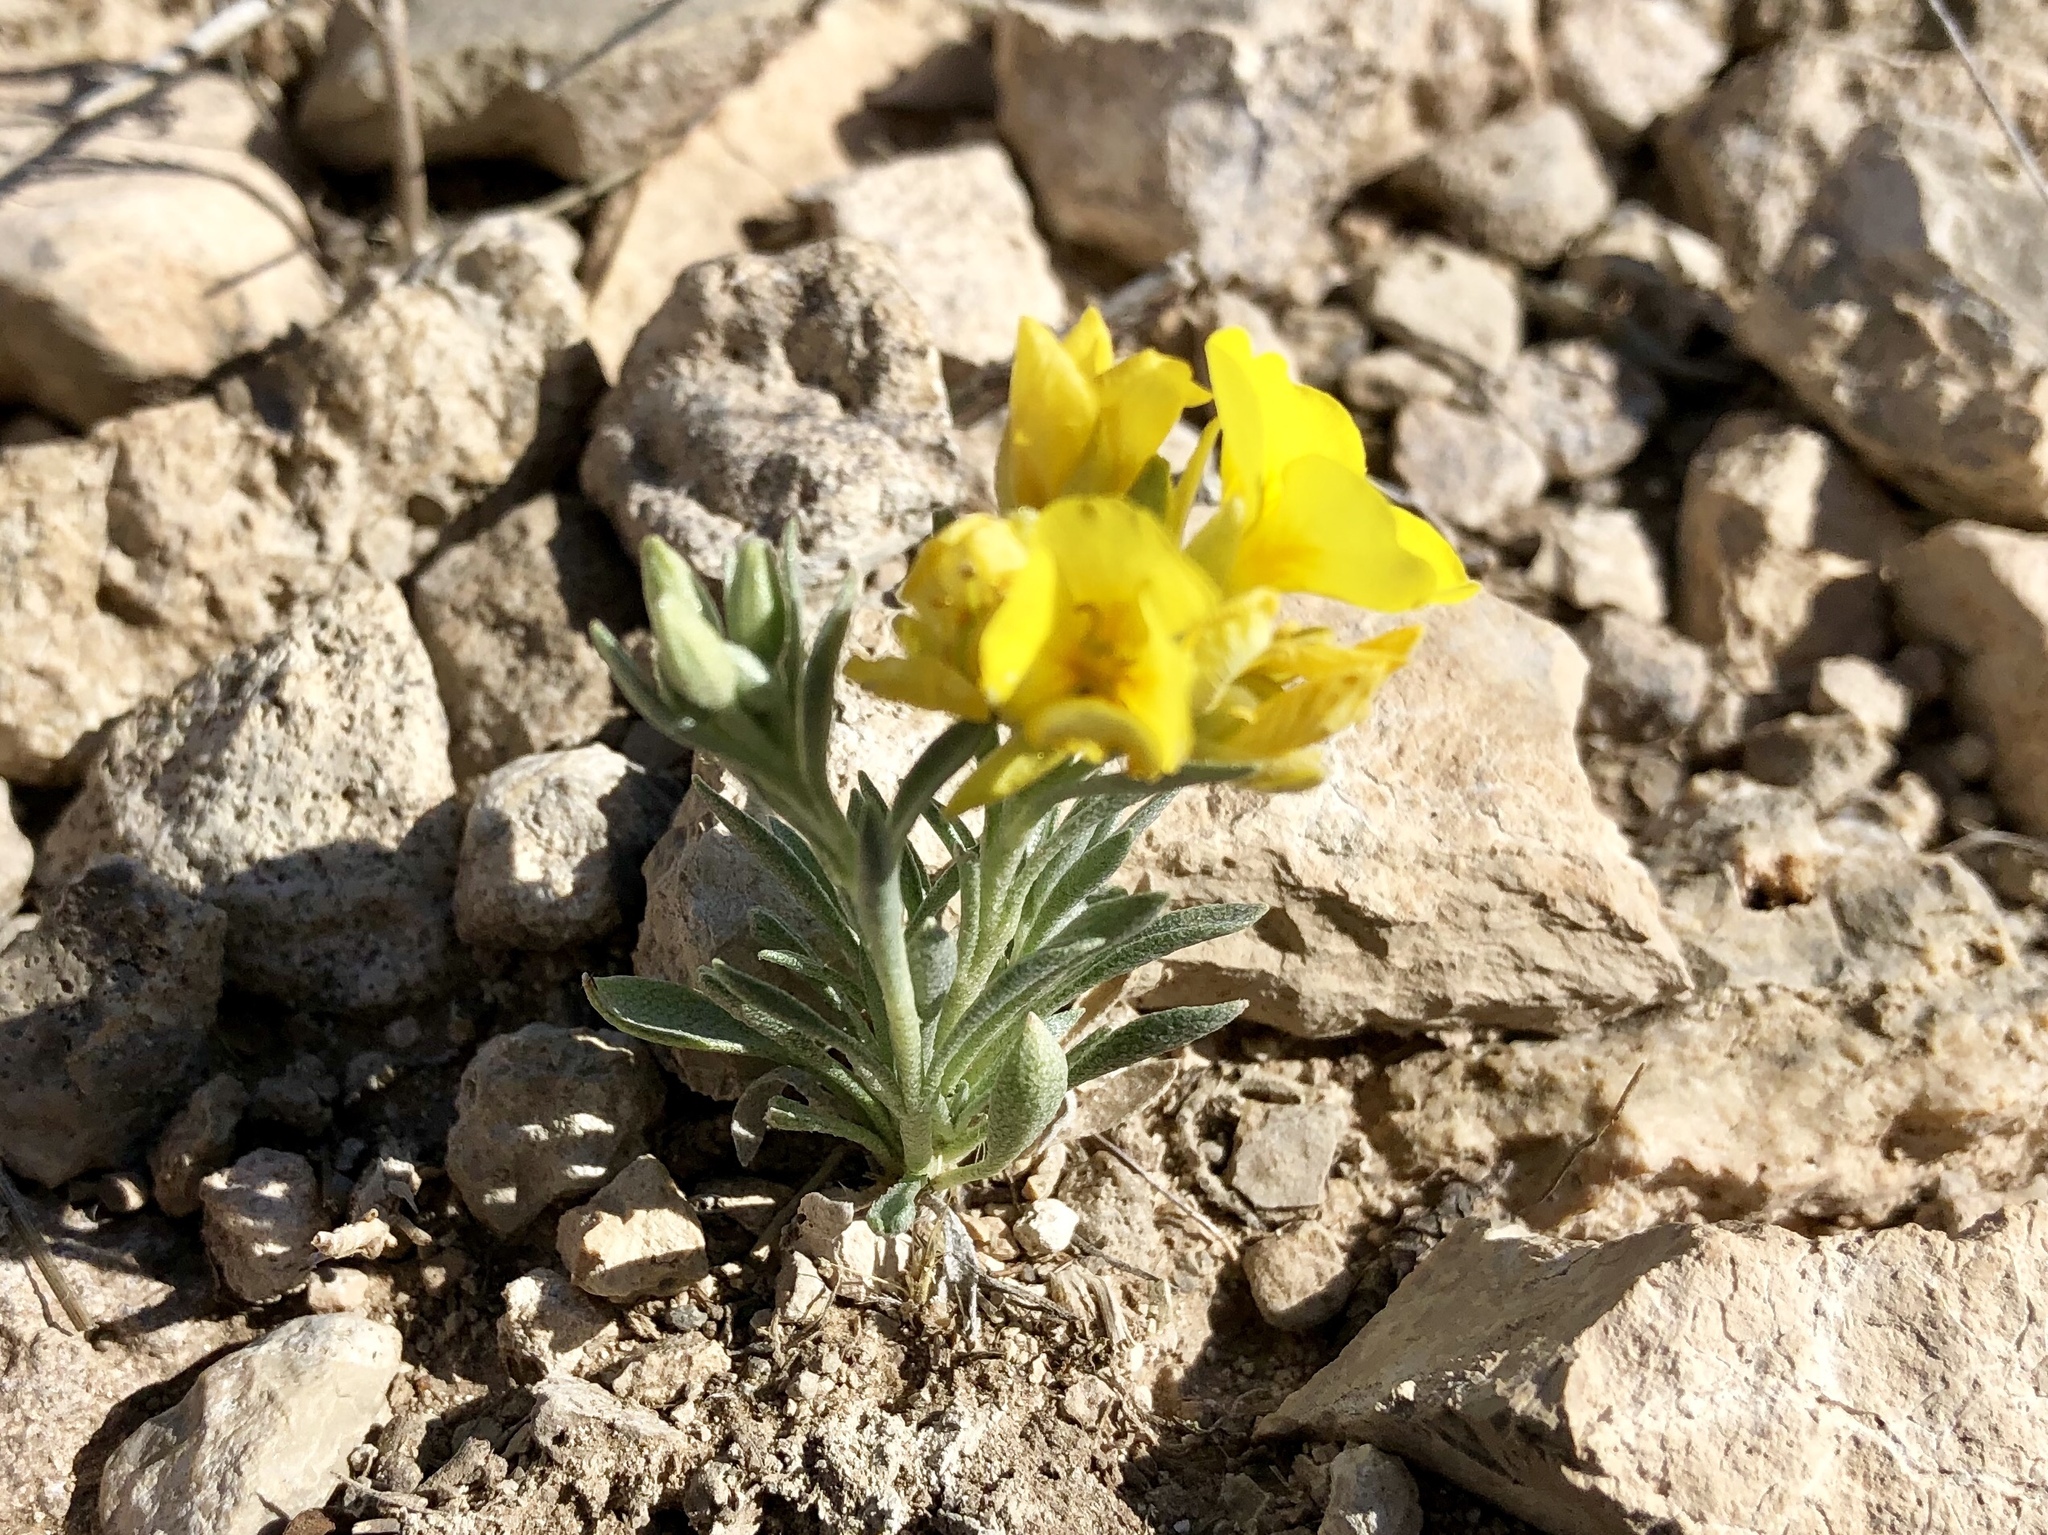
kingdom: Plantae
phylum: Tracheophyta
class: Magnoliopsida
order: Brassicales
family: Brassicaceae
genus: Physaria
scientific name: Physaria fendleri
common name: Fendler's bladderpod
